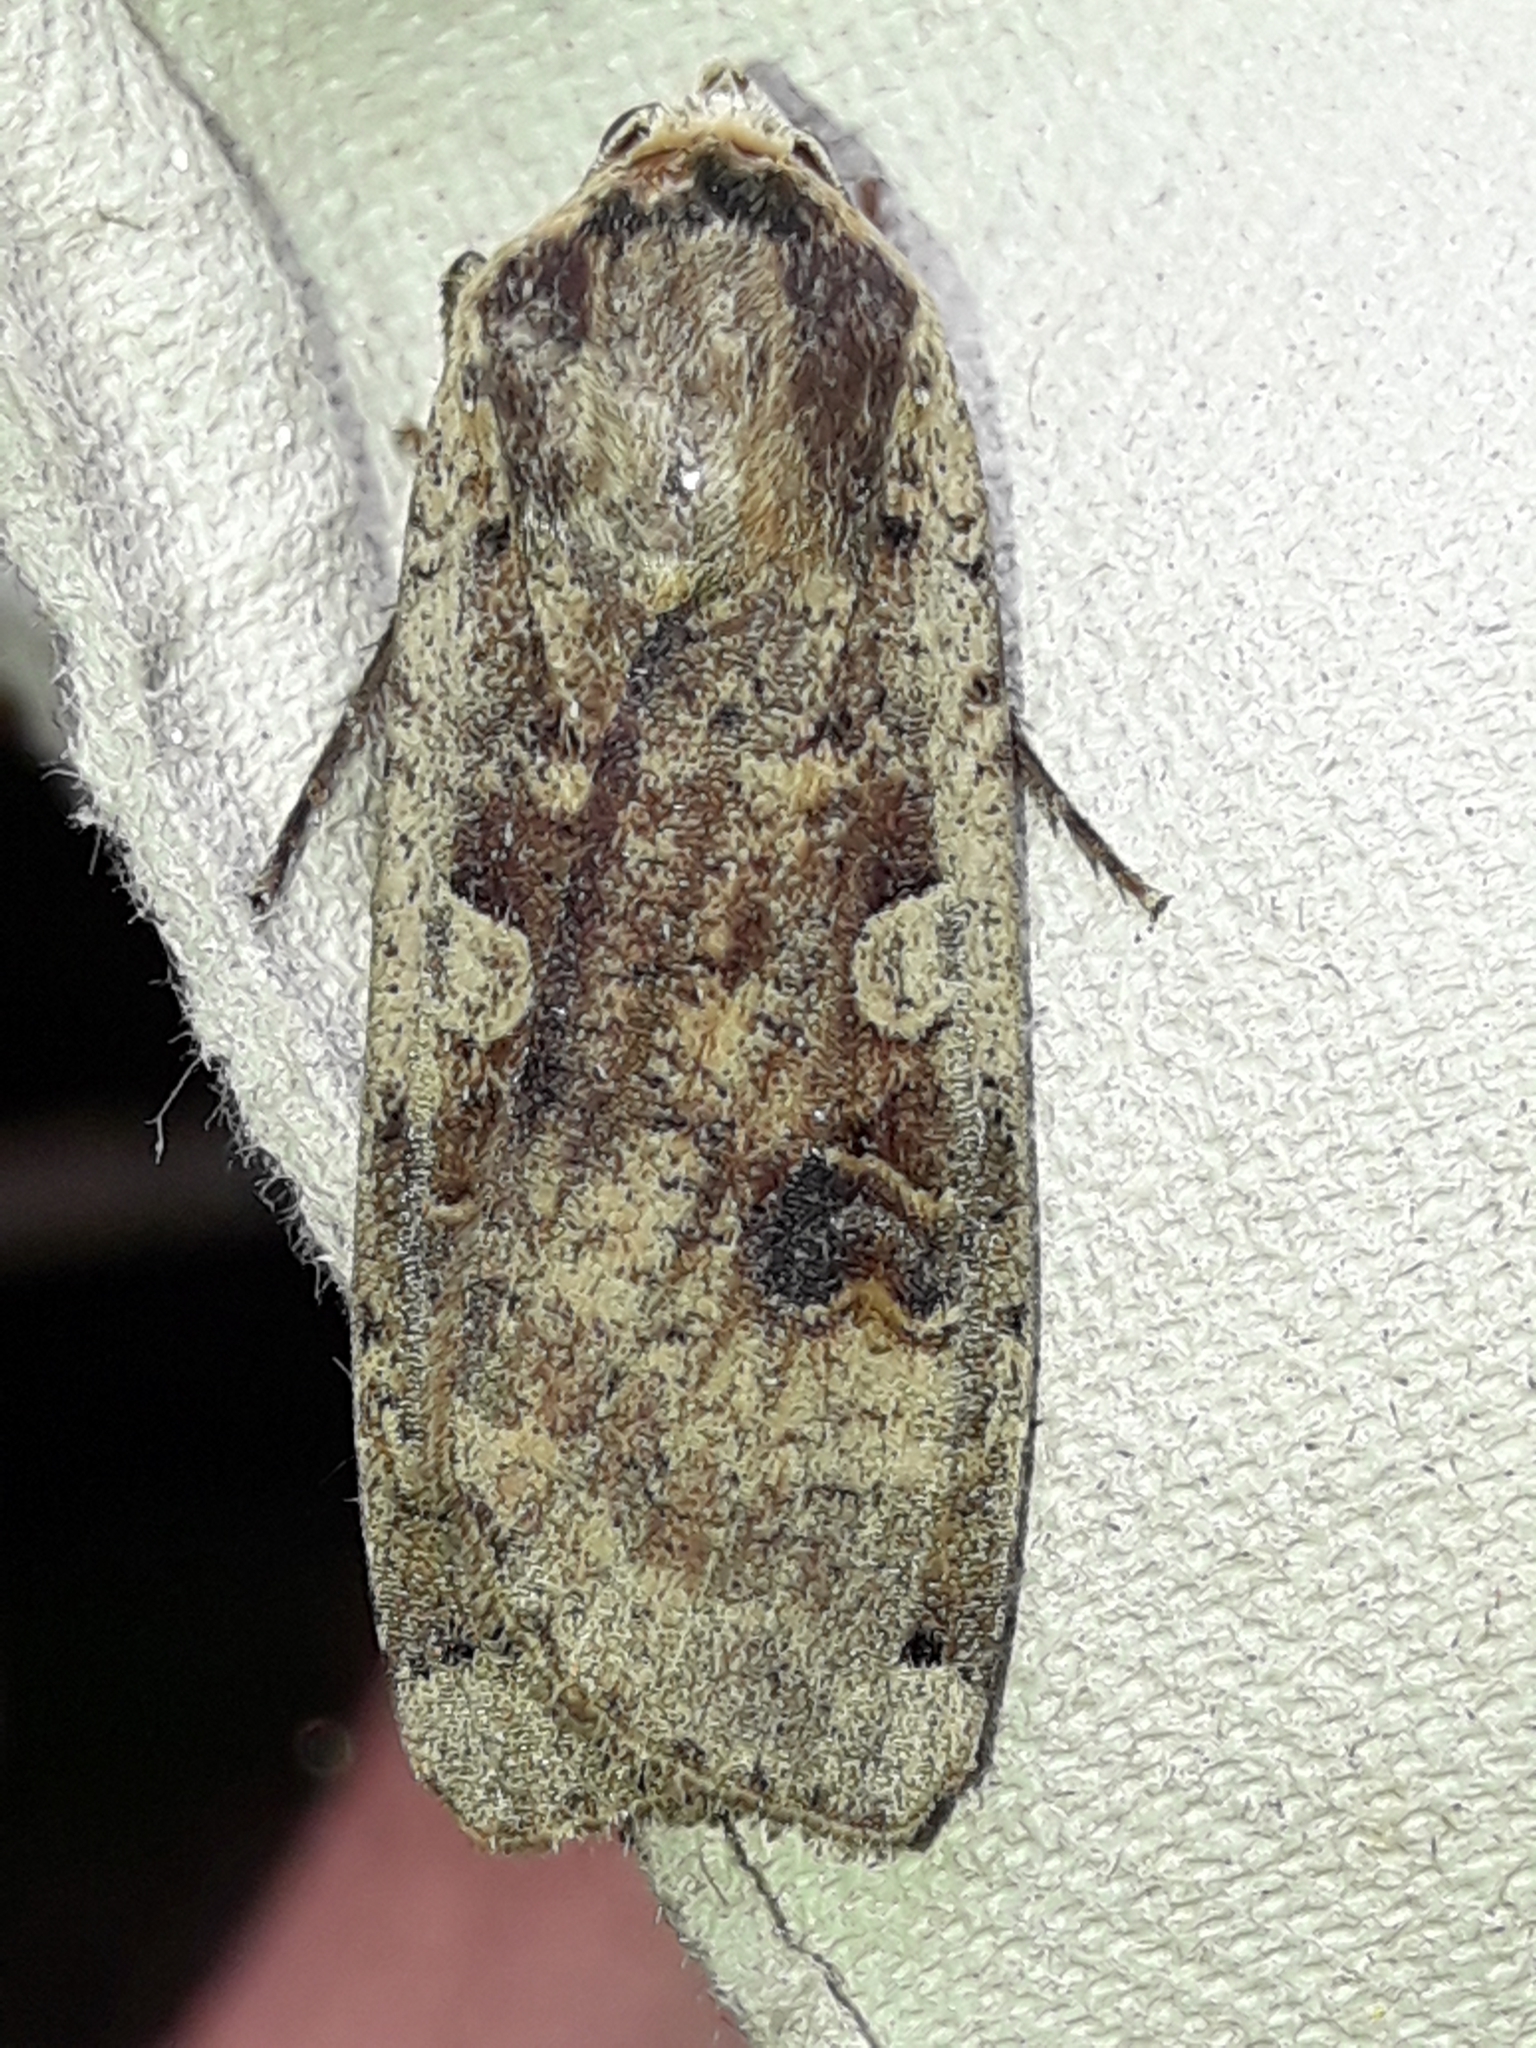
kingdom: Animalia
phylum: Arthropoda
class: Insecta
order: Lepidoptera
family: Noctuidae
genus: Noctua
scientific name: Noctua pronuba
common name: Large yellow underwing
